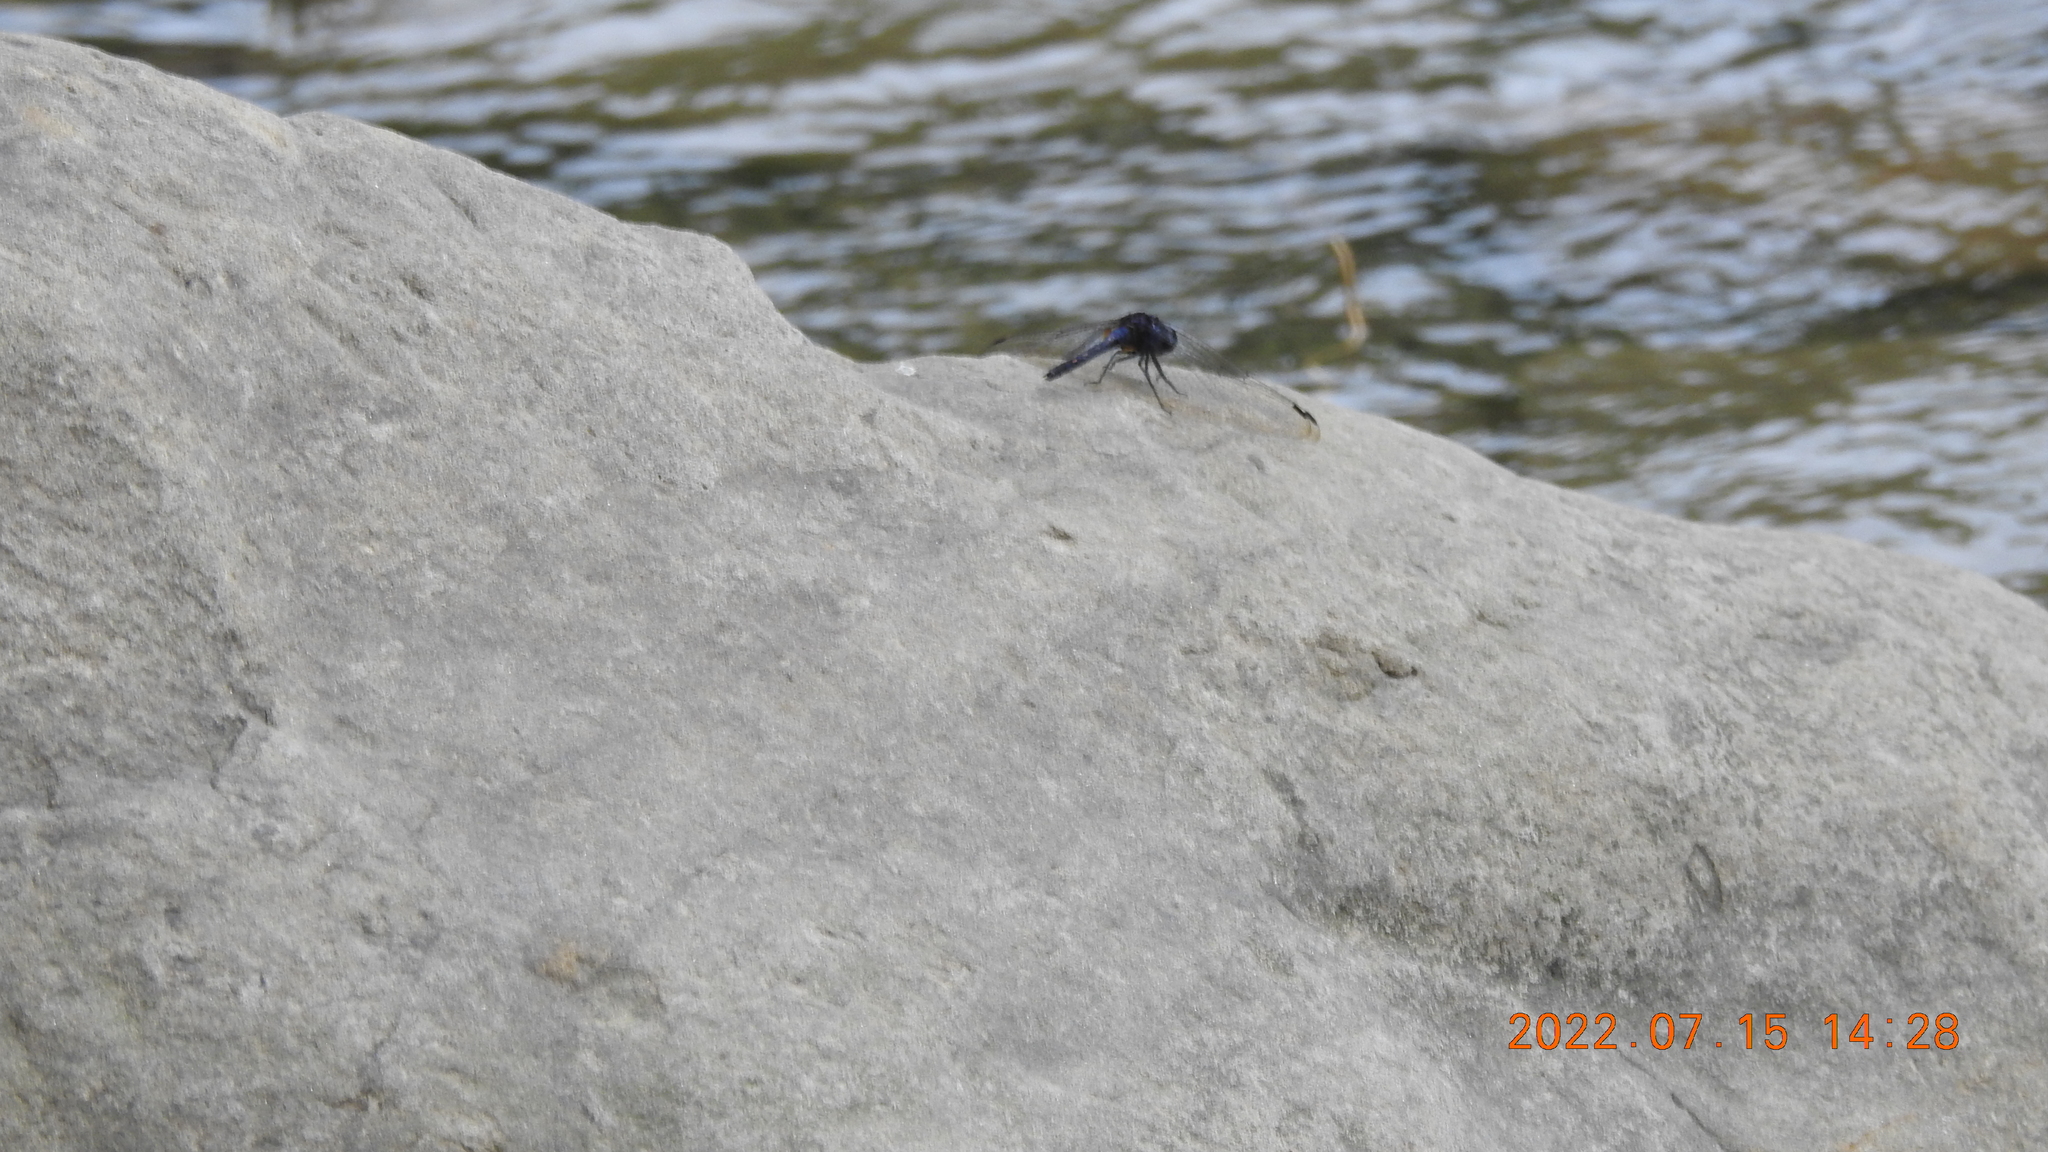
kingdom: Animalia
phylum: Arthropoda
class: Insecta
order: Odonata
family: Libellulidae
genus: Trithemis
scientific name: Trithemis festiva
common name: Indigo dropwing
